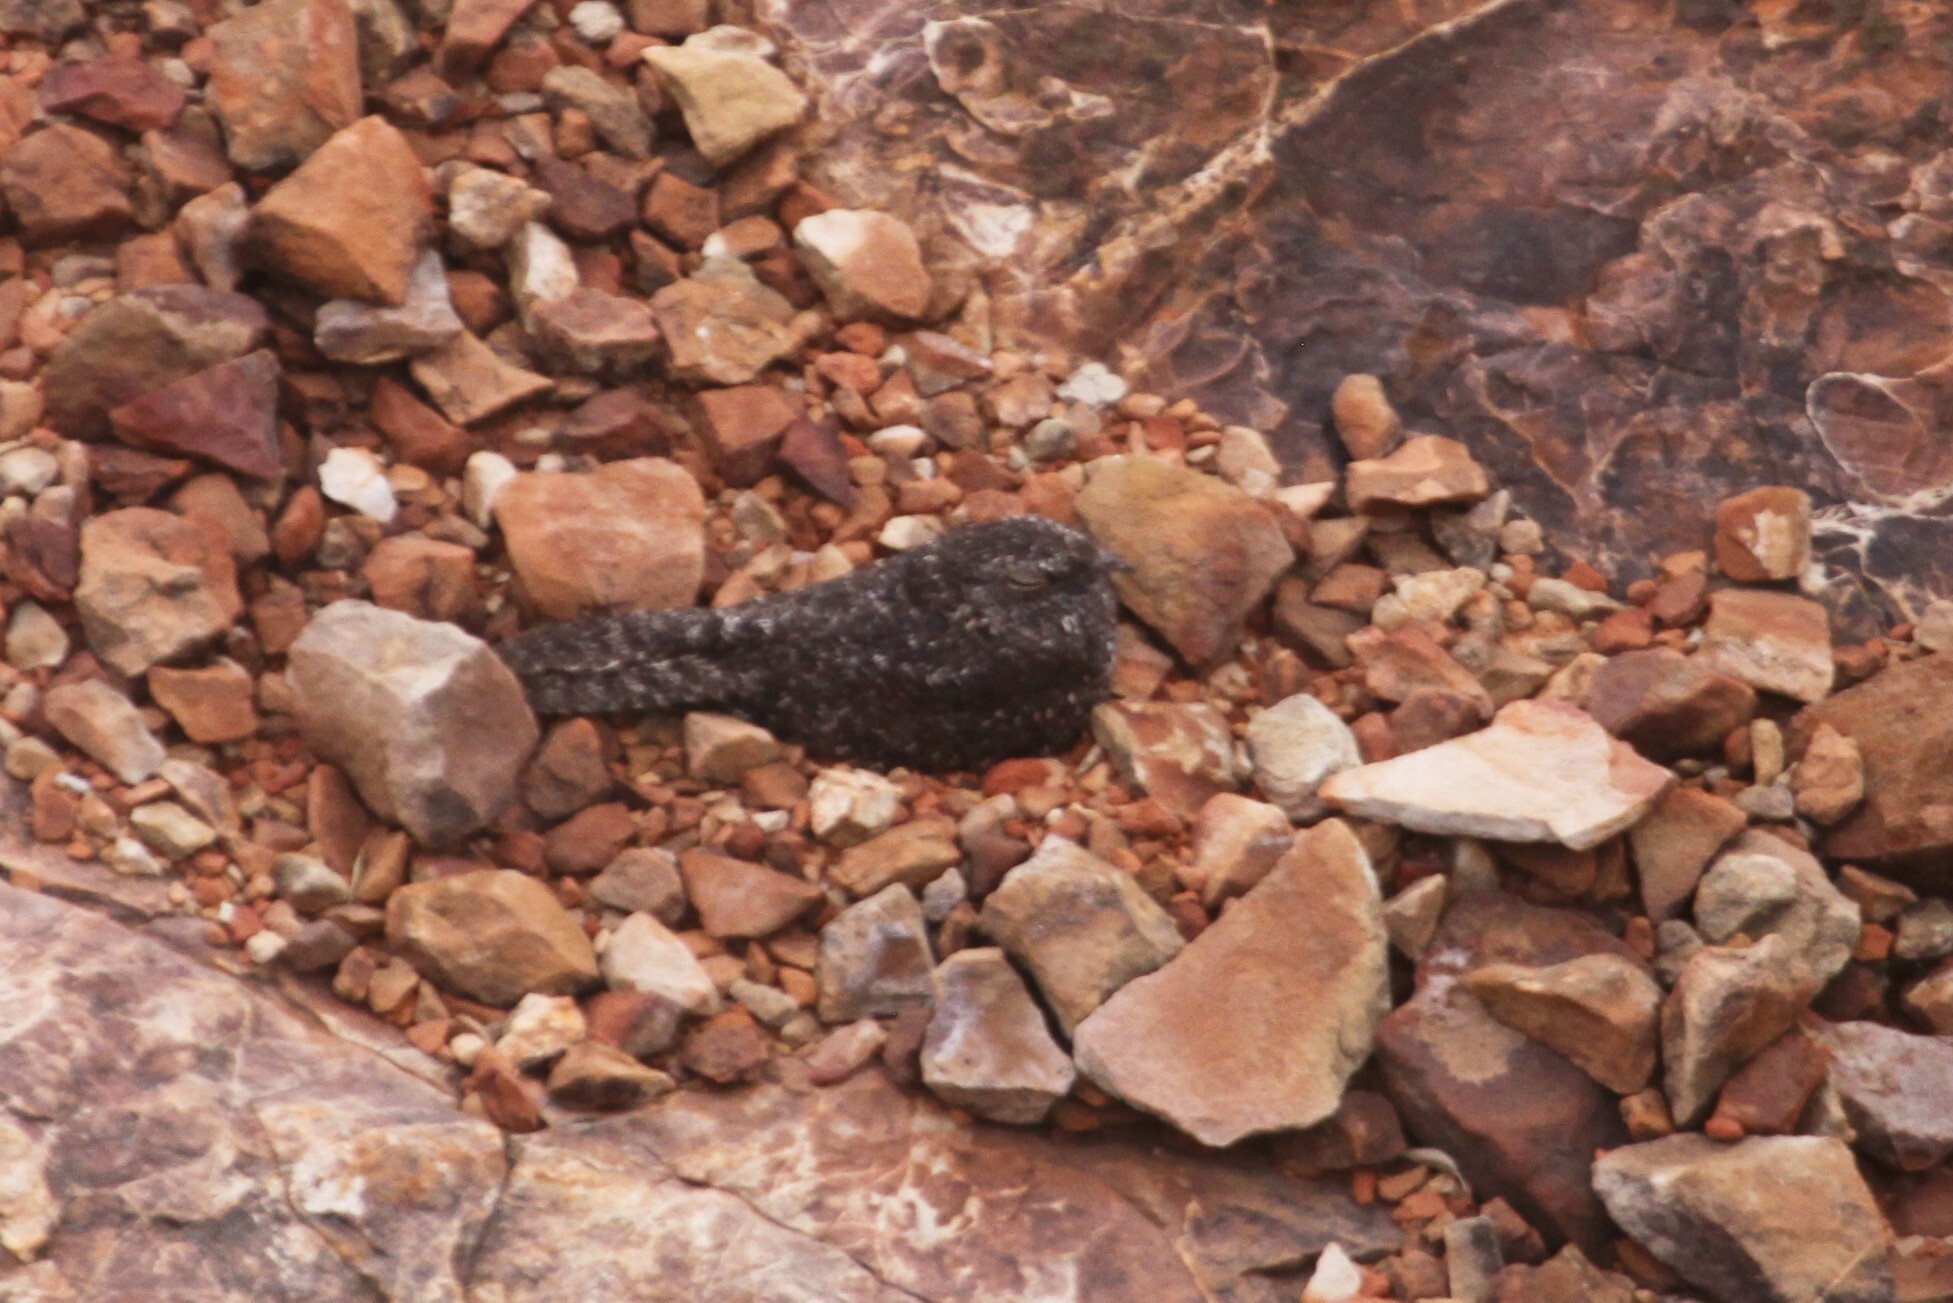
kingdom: Animalia
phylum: Chordata
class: Aves
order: Caprimulgiformes
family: Caprimulgidae
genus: Caprimulgus
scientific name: Caprimulgus tristigma
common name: Freckled nightjar
